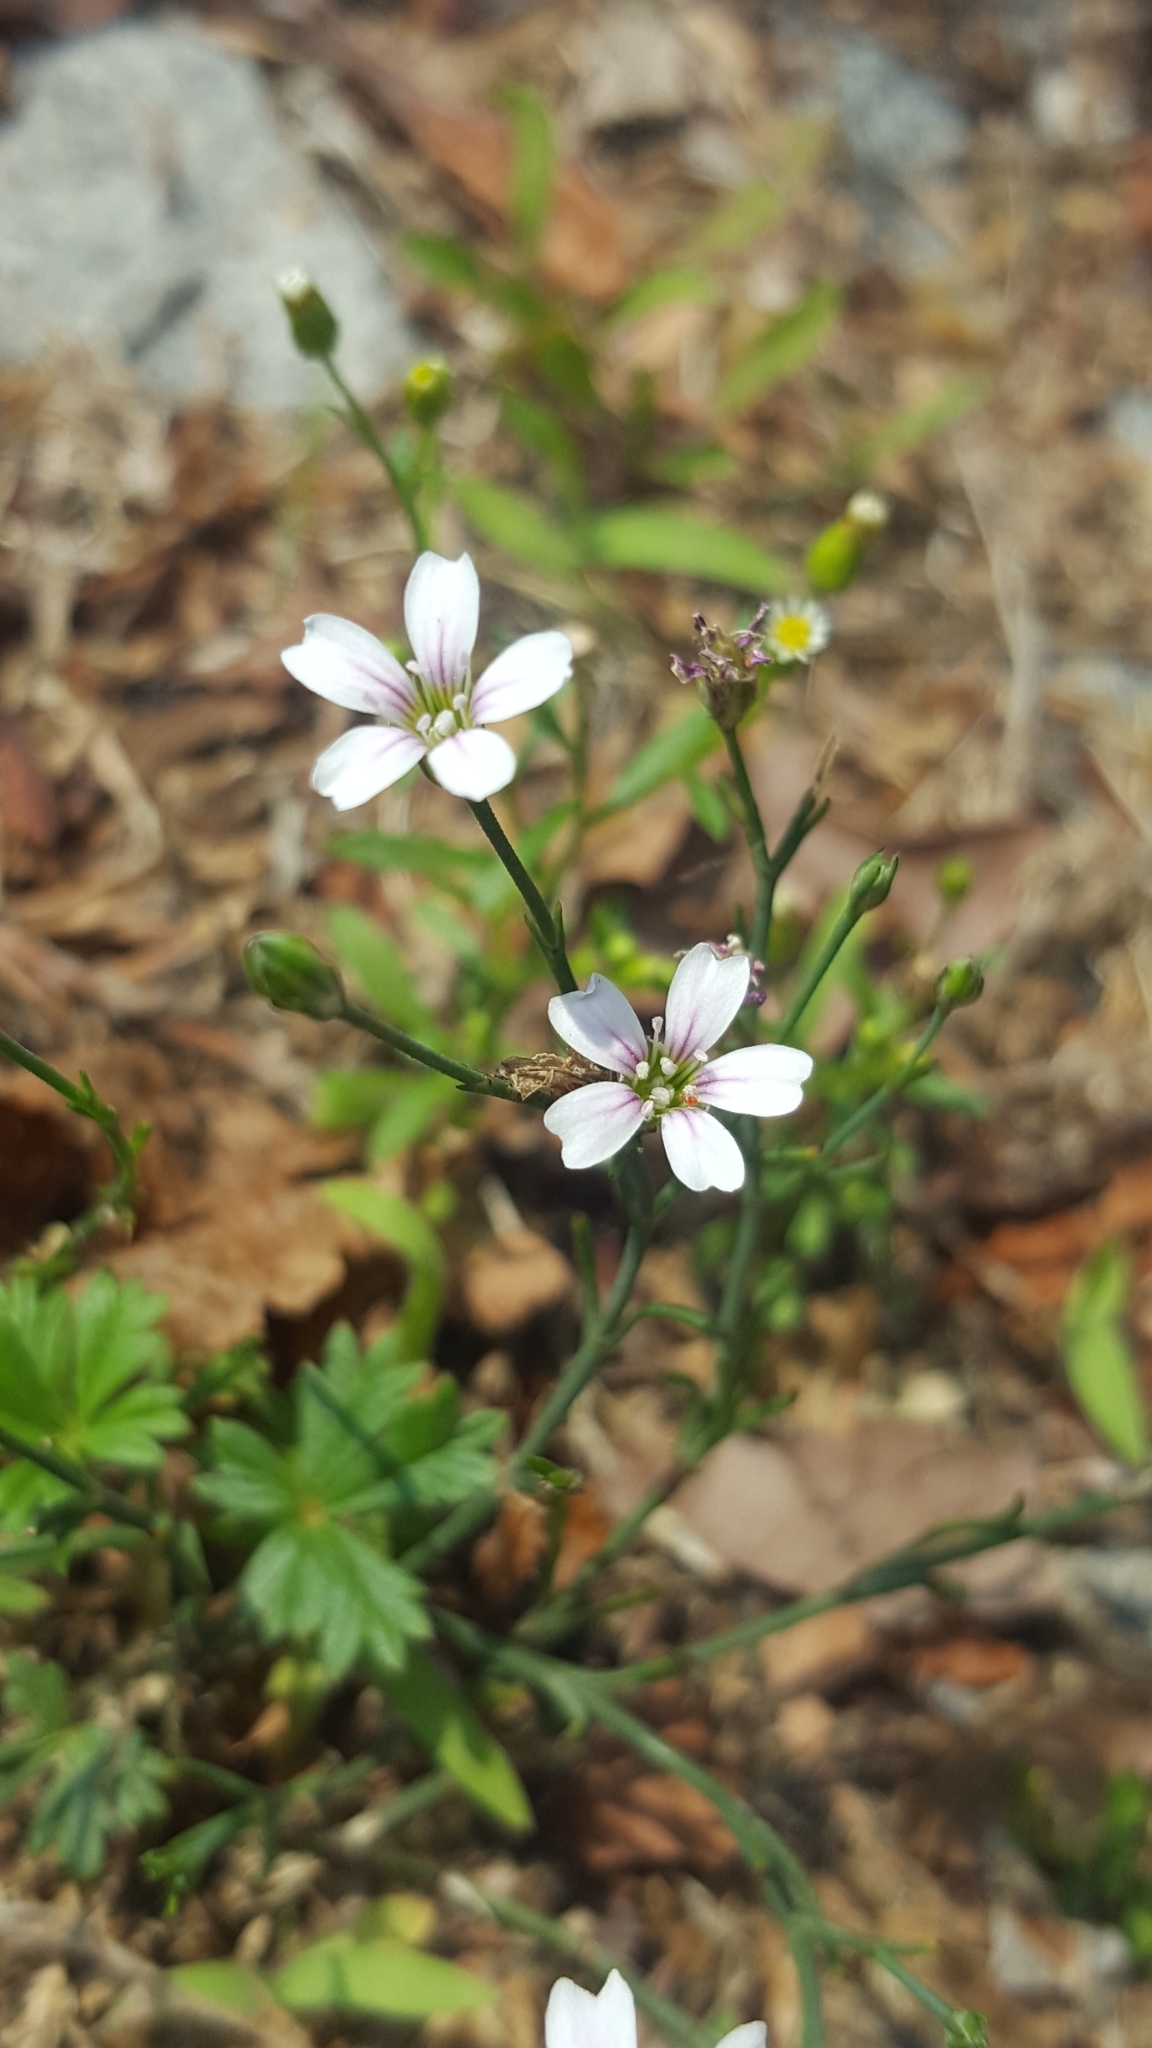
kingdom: Plantae
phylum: Tracheophyta
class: Magnoliopsida
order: Caryophyllales
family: Caryophyllaceae
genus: Petrorhagia
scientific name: Petrorhagia saxifraga
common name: Tunicflower
